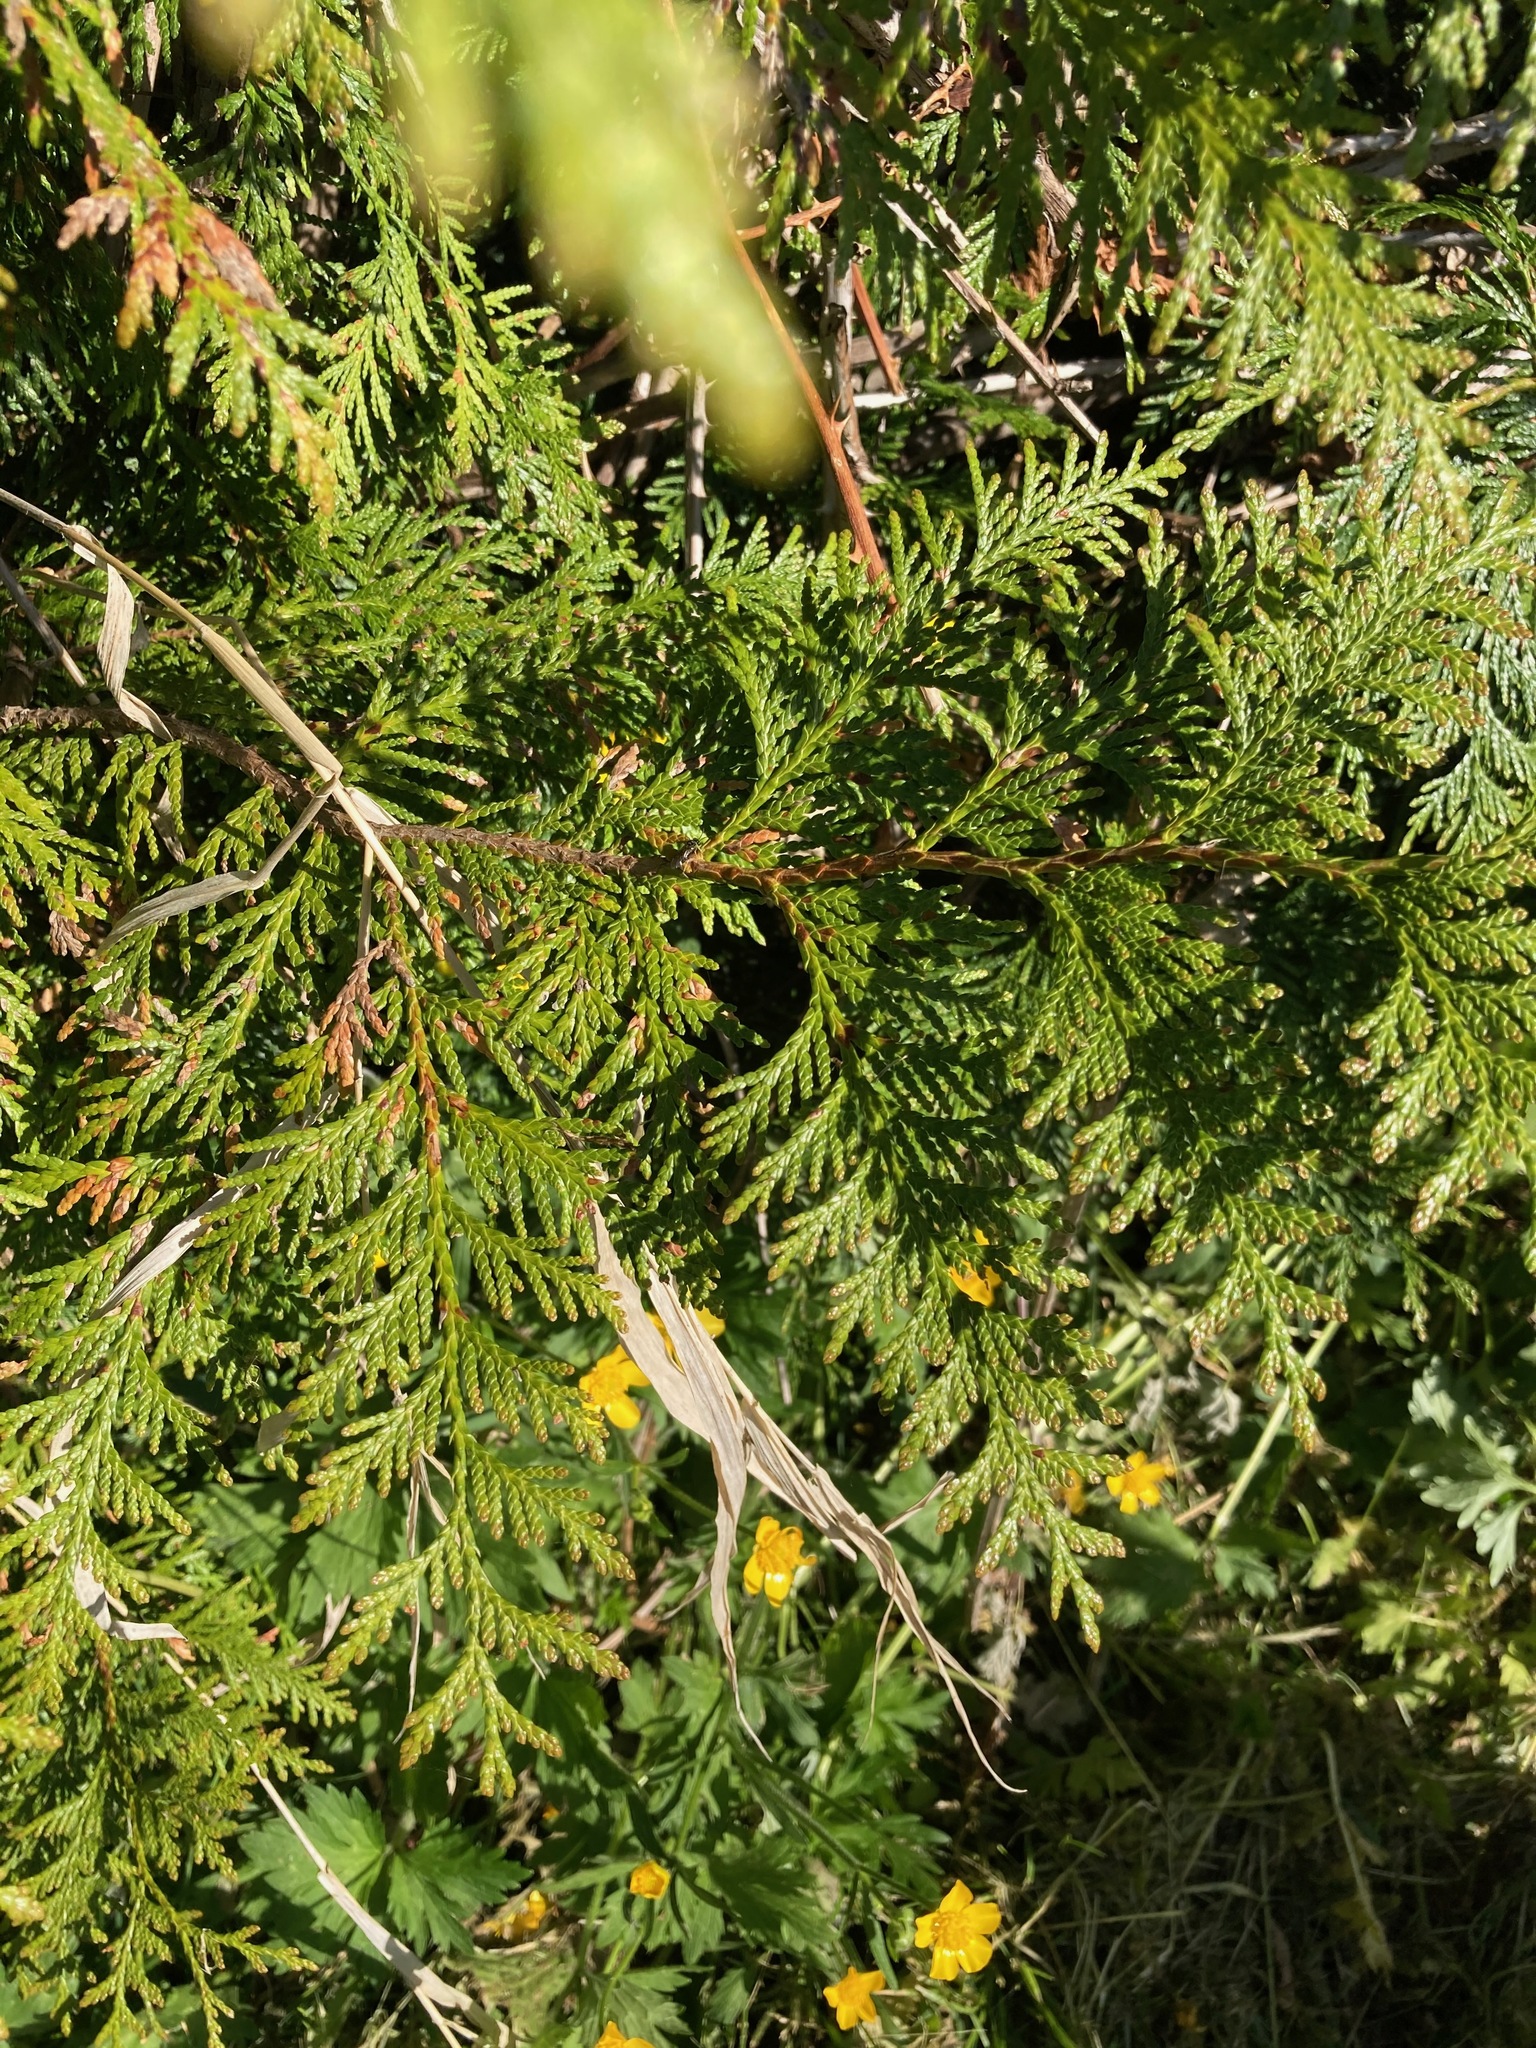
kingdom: Plantae
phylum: Tracheophyta
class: Pinopsida
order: Pinales
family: Cupressaceae
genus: Thuja
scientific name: Thuja plicata
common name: Western red-cedar
